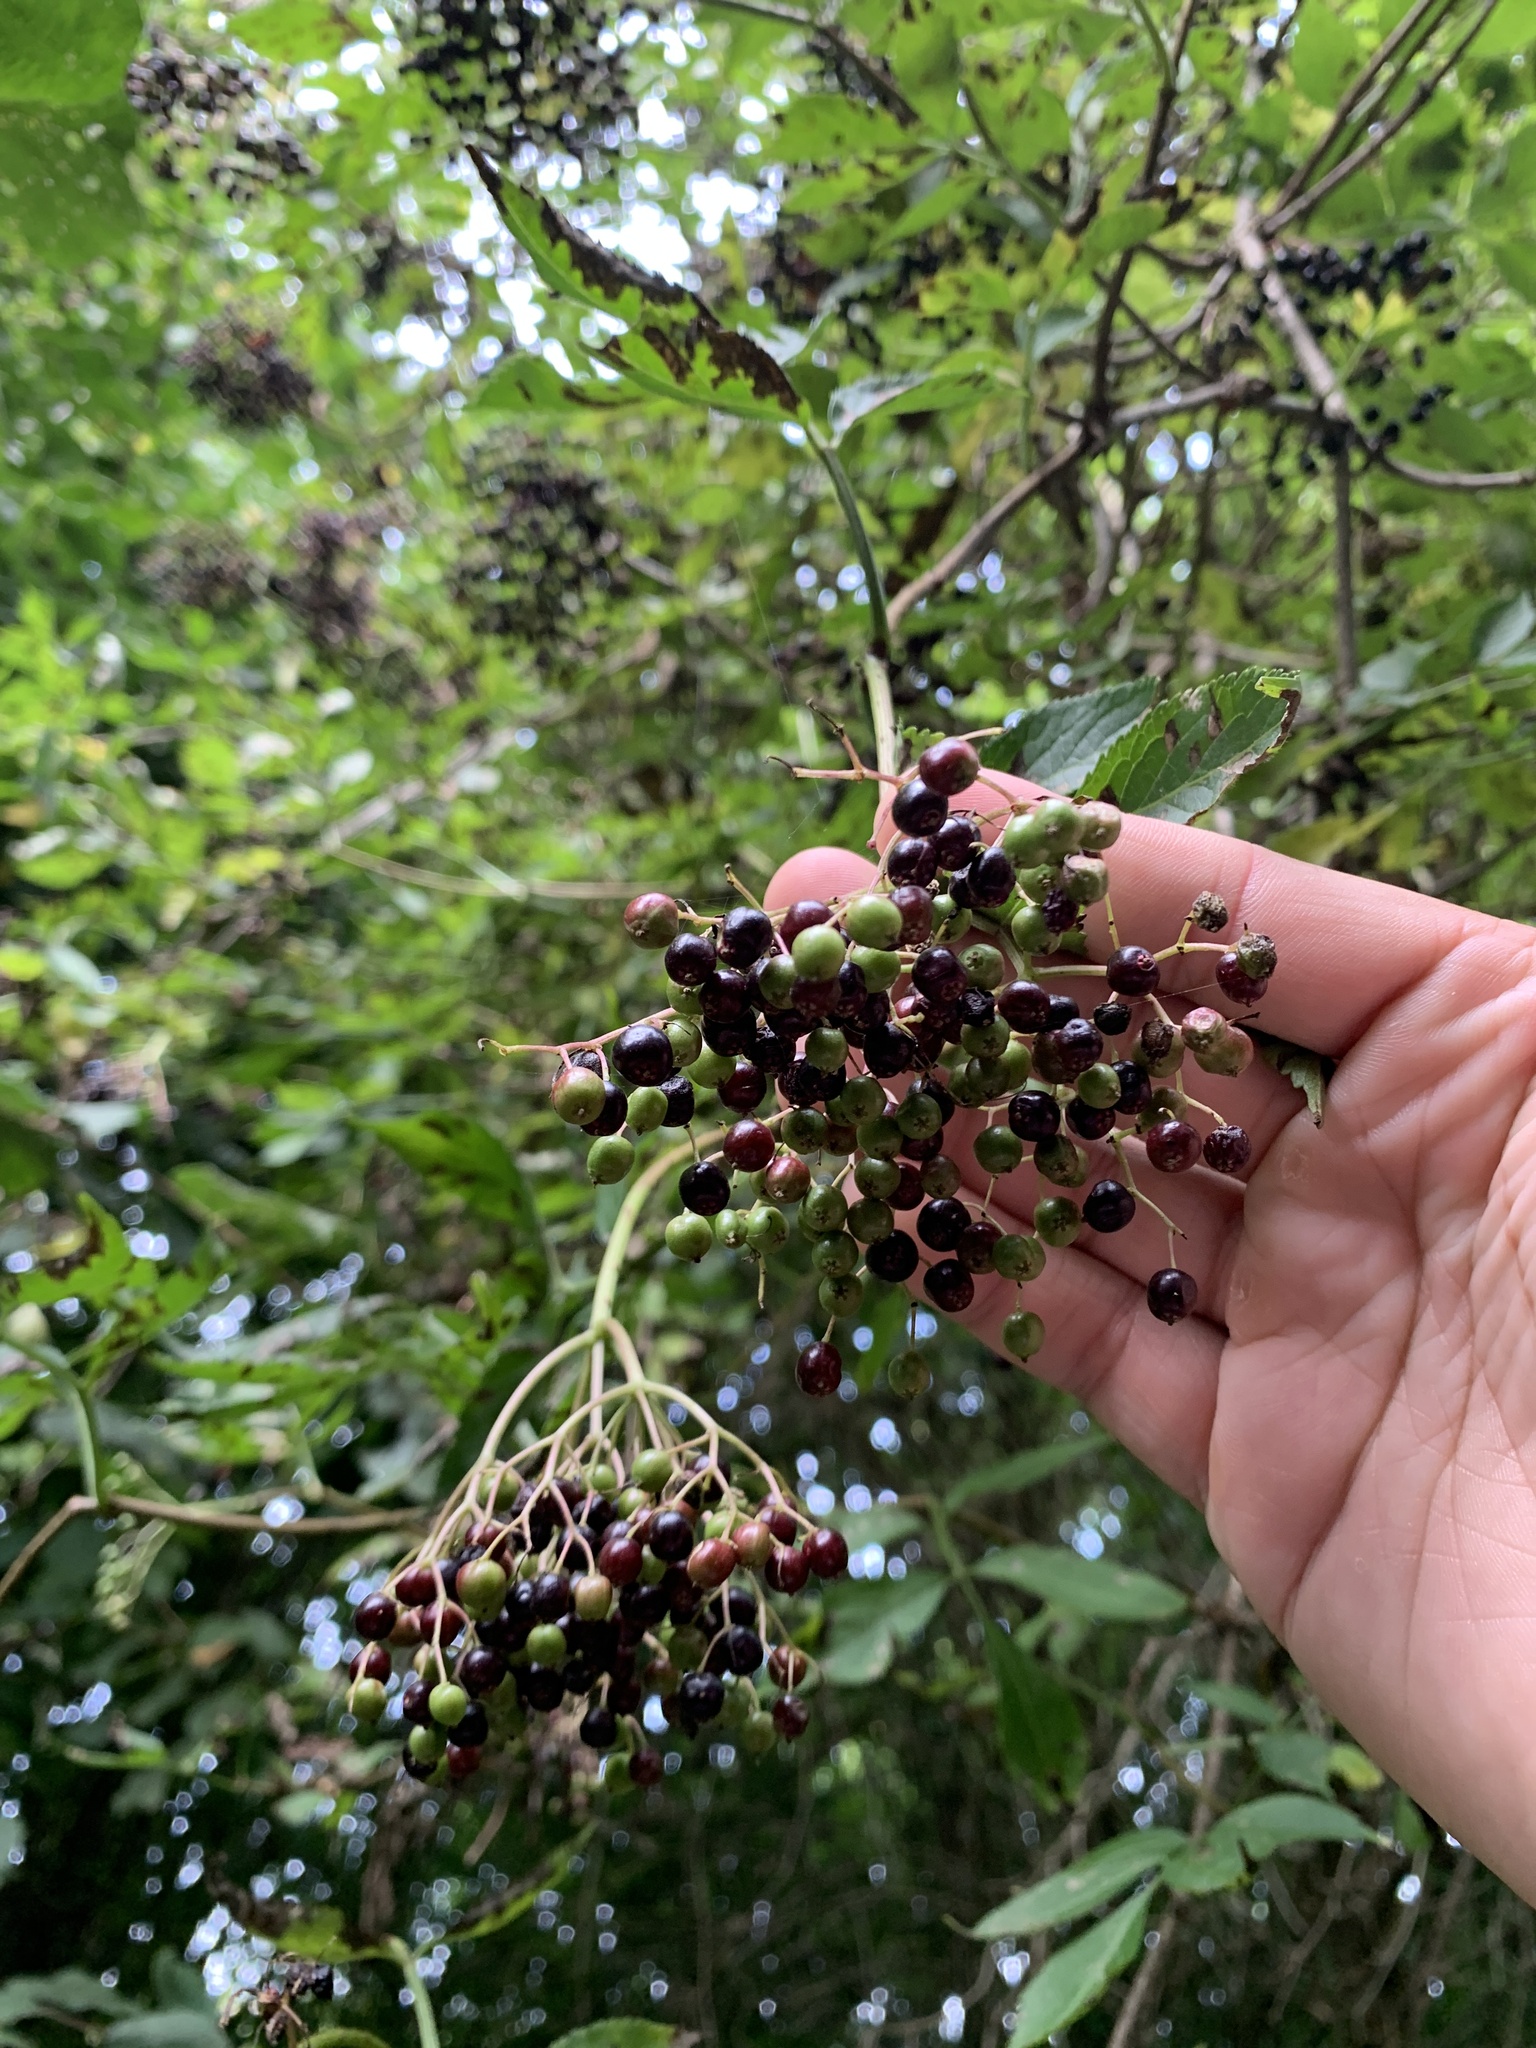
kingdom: Plantae
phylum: Tracheophyta
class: Magnoliopsida
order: Dipsacales
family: Viburnaceae
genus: Sambucus
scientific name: Sambucus nigra
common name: Elder
